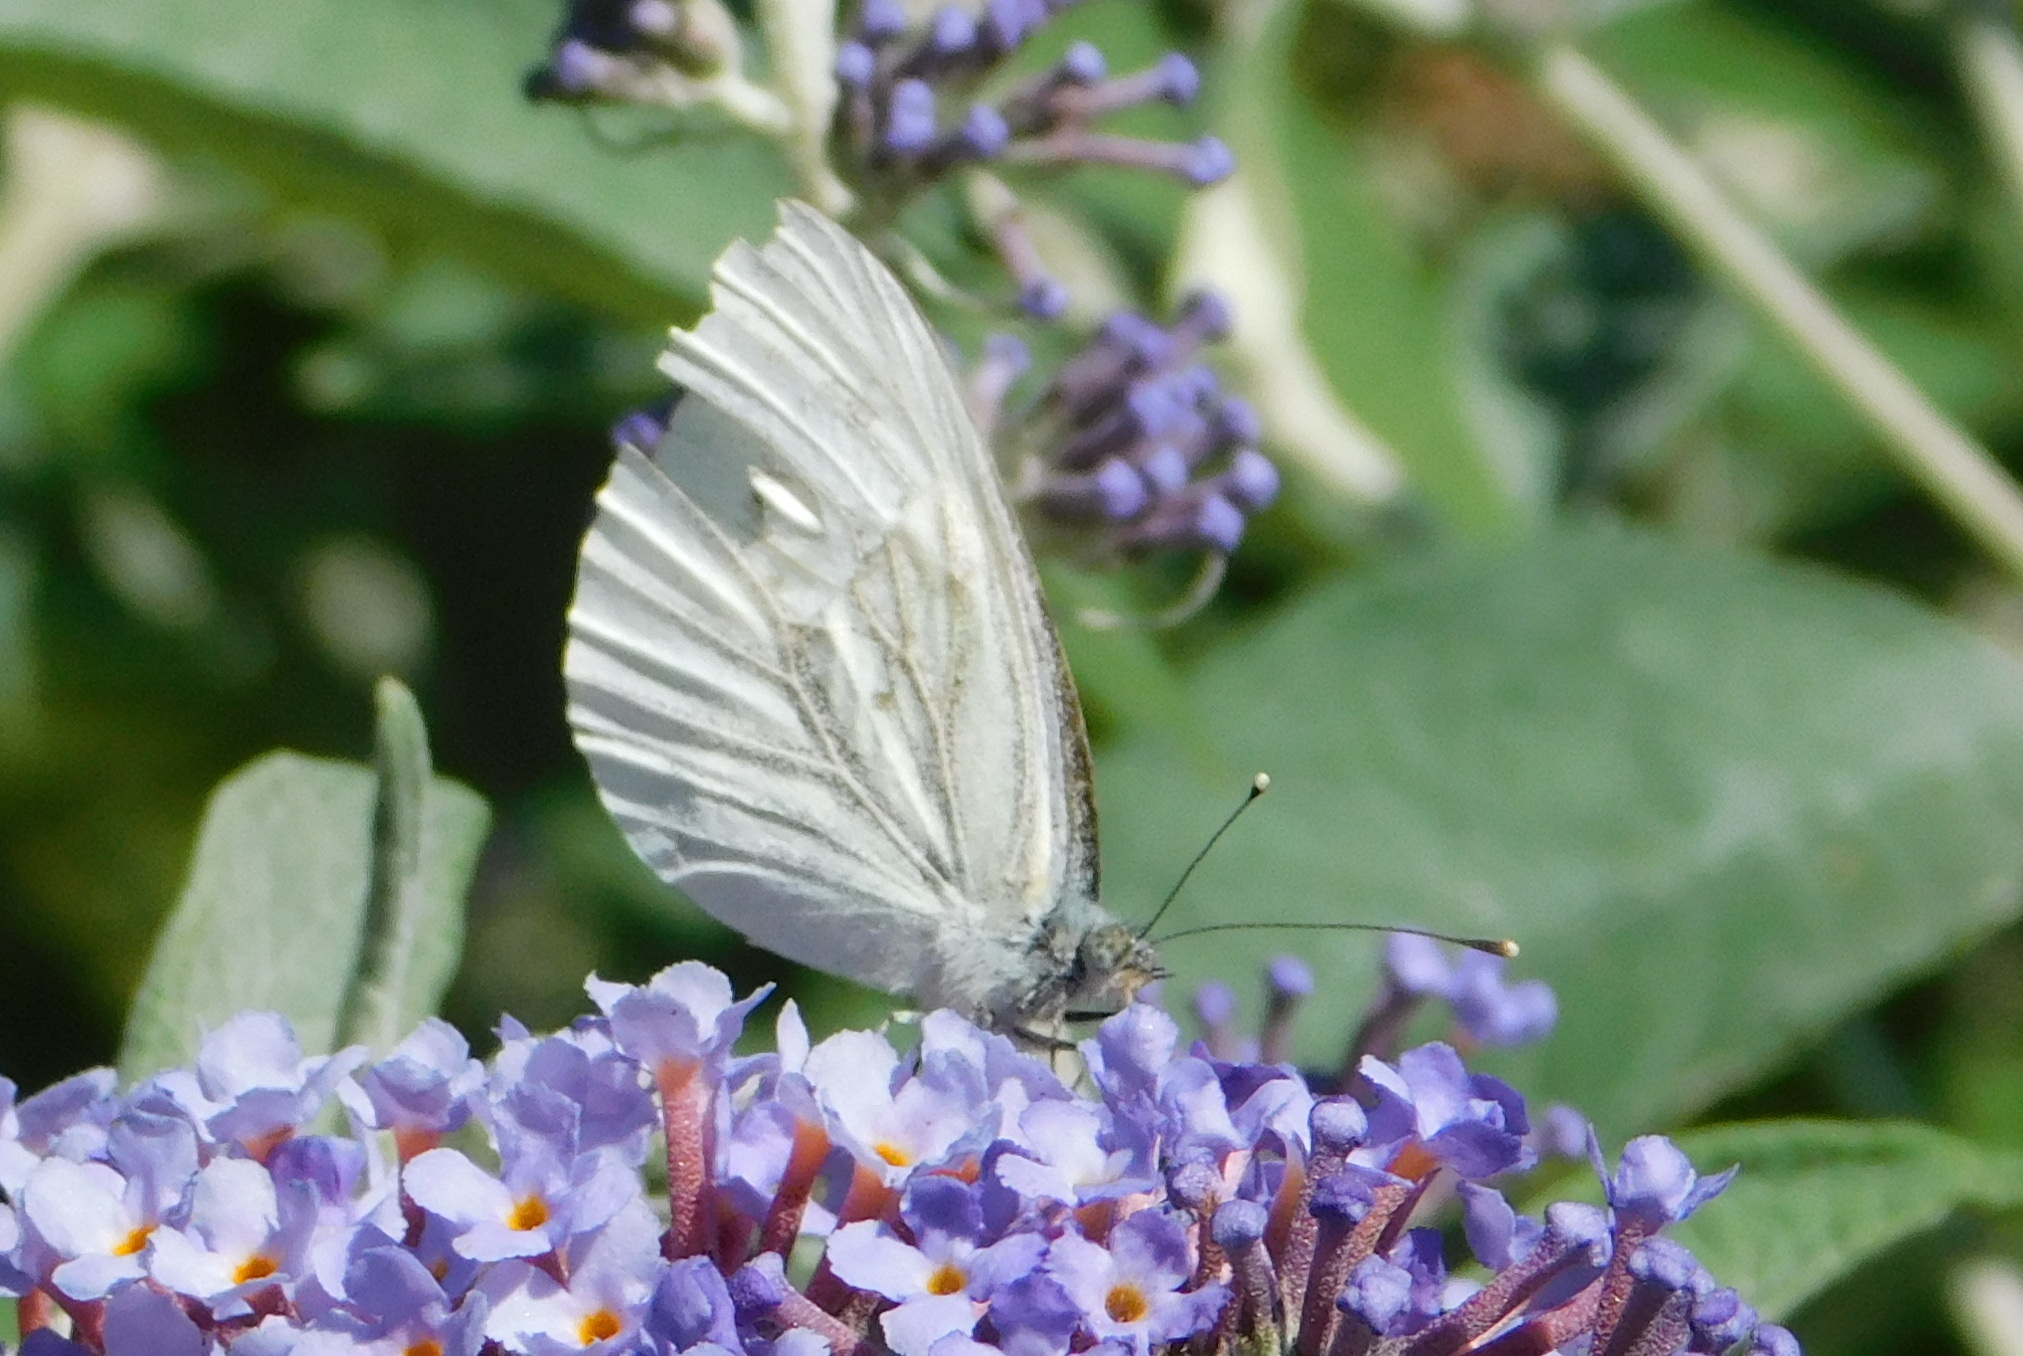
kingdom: Animalia
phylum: Arthropoda
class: Insecta
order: Lepidoptera
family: Pieridae
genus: Pieris
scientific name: Pieris napi
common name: Green-veined white
